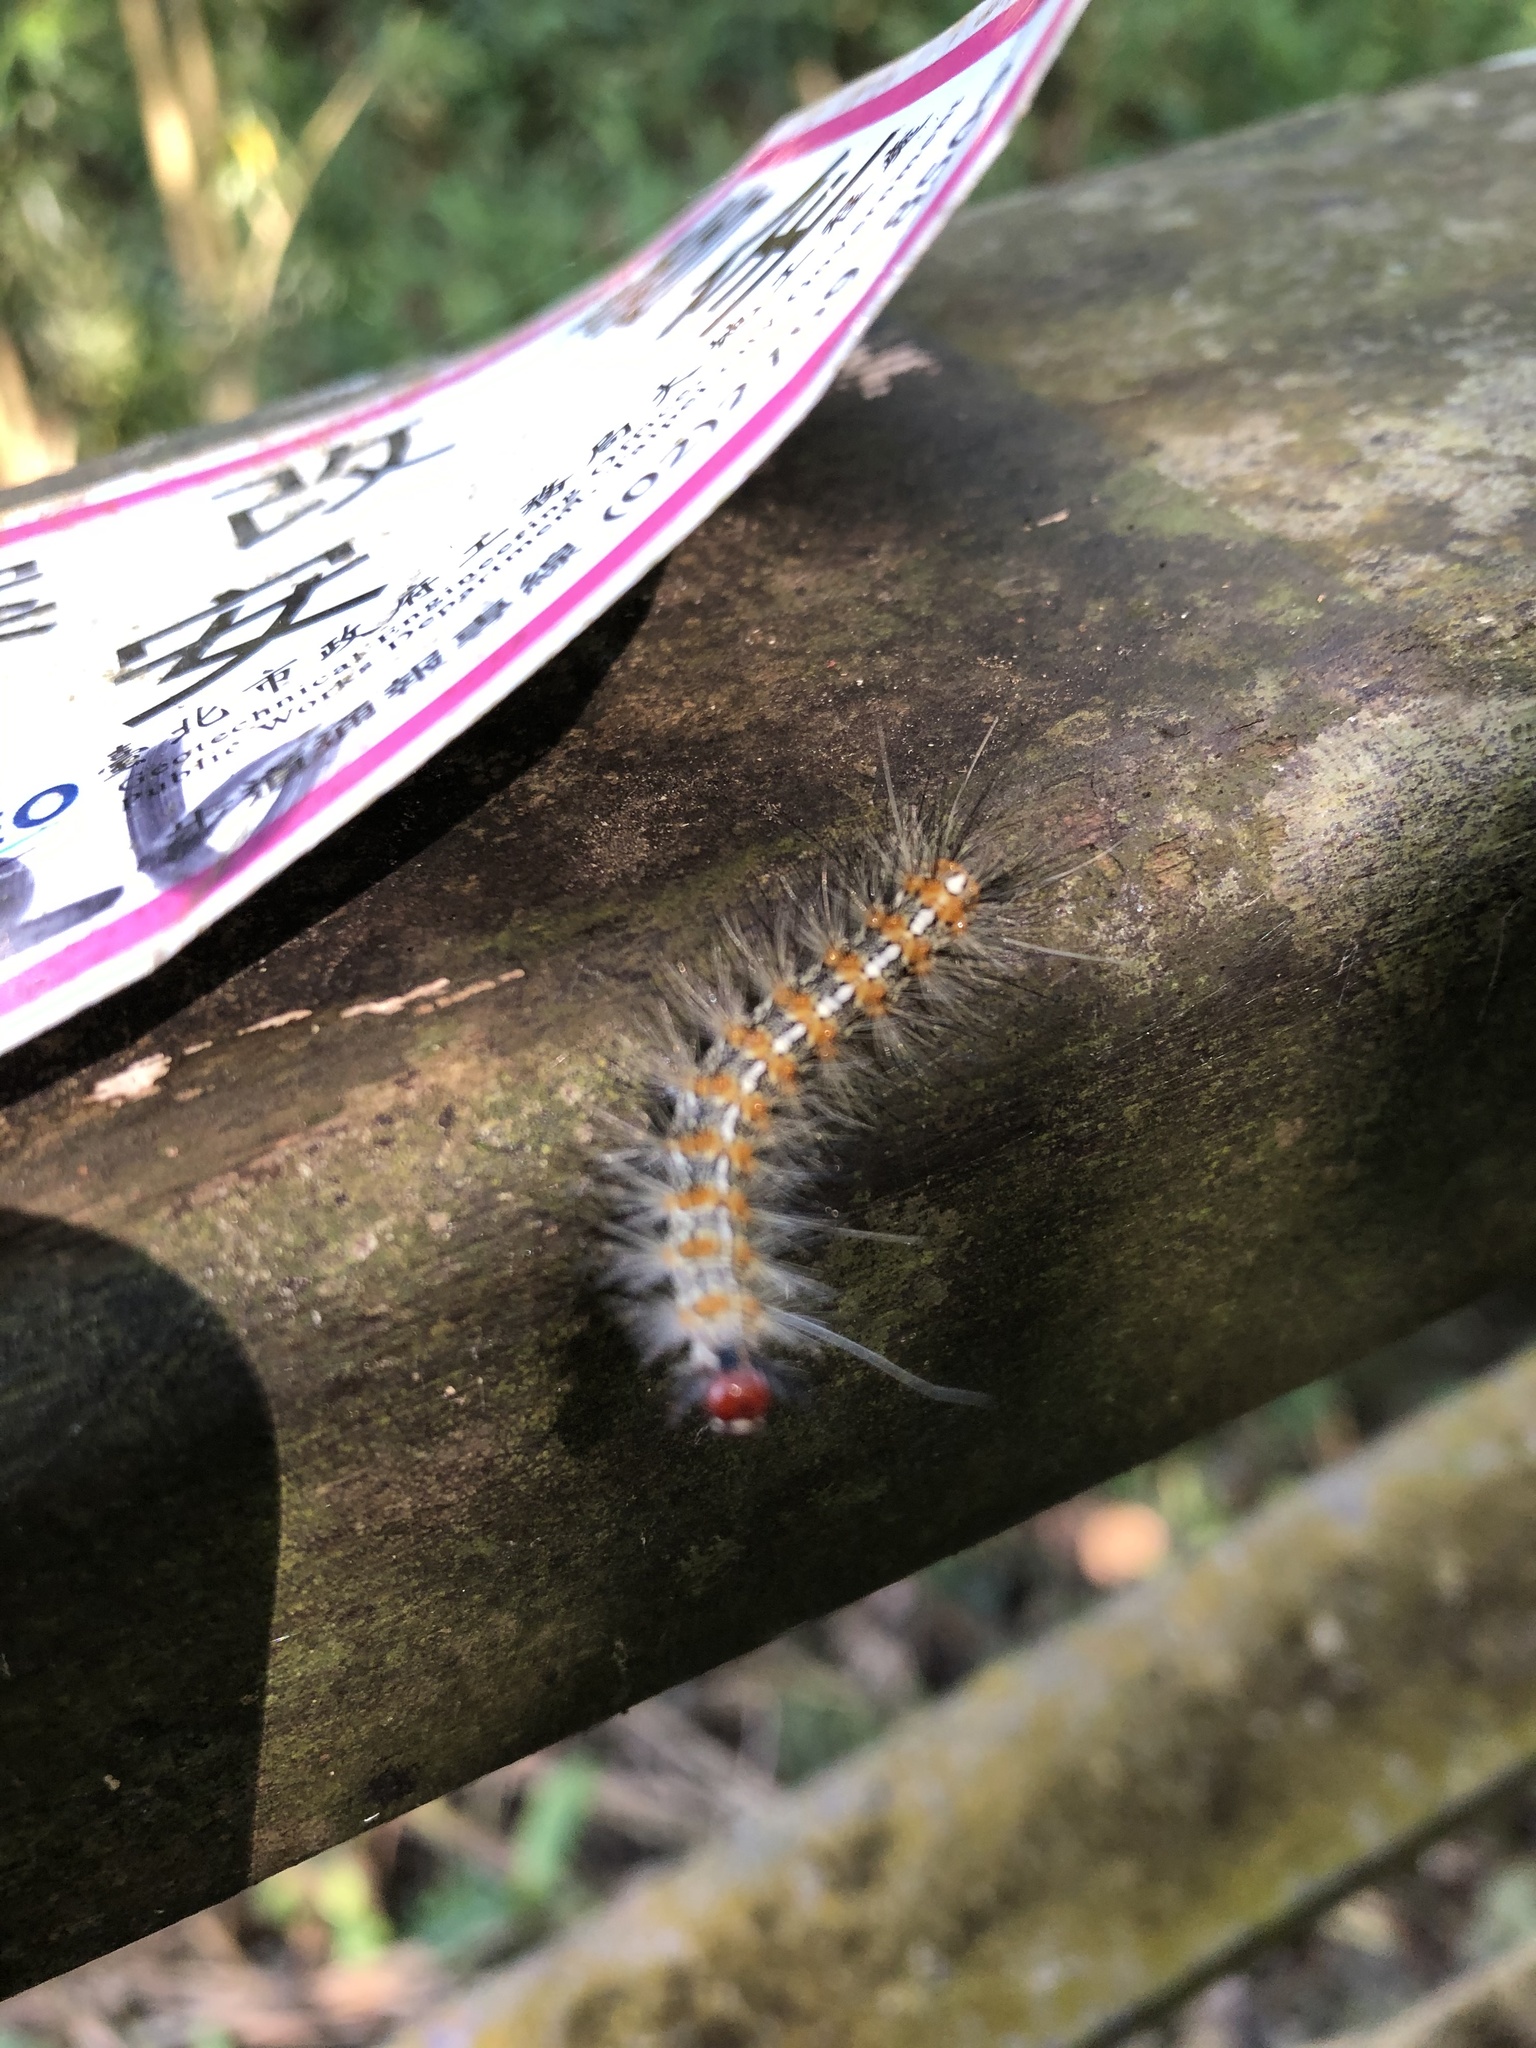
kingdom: Animalia
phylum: Arthropoda
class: Insecta
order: Lepidoptera
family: Erebidae
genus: Lemyra
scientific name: Lemyra imparilis
